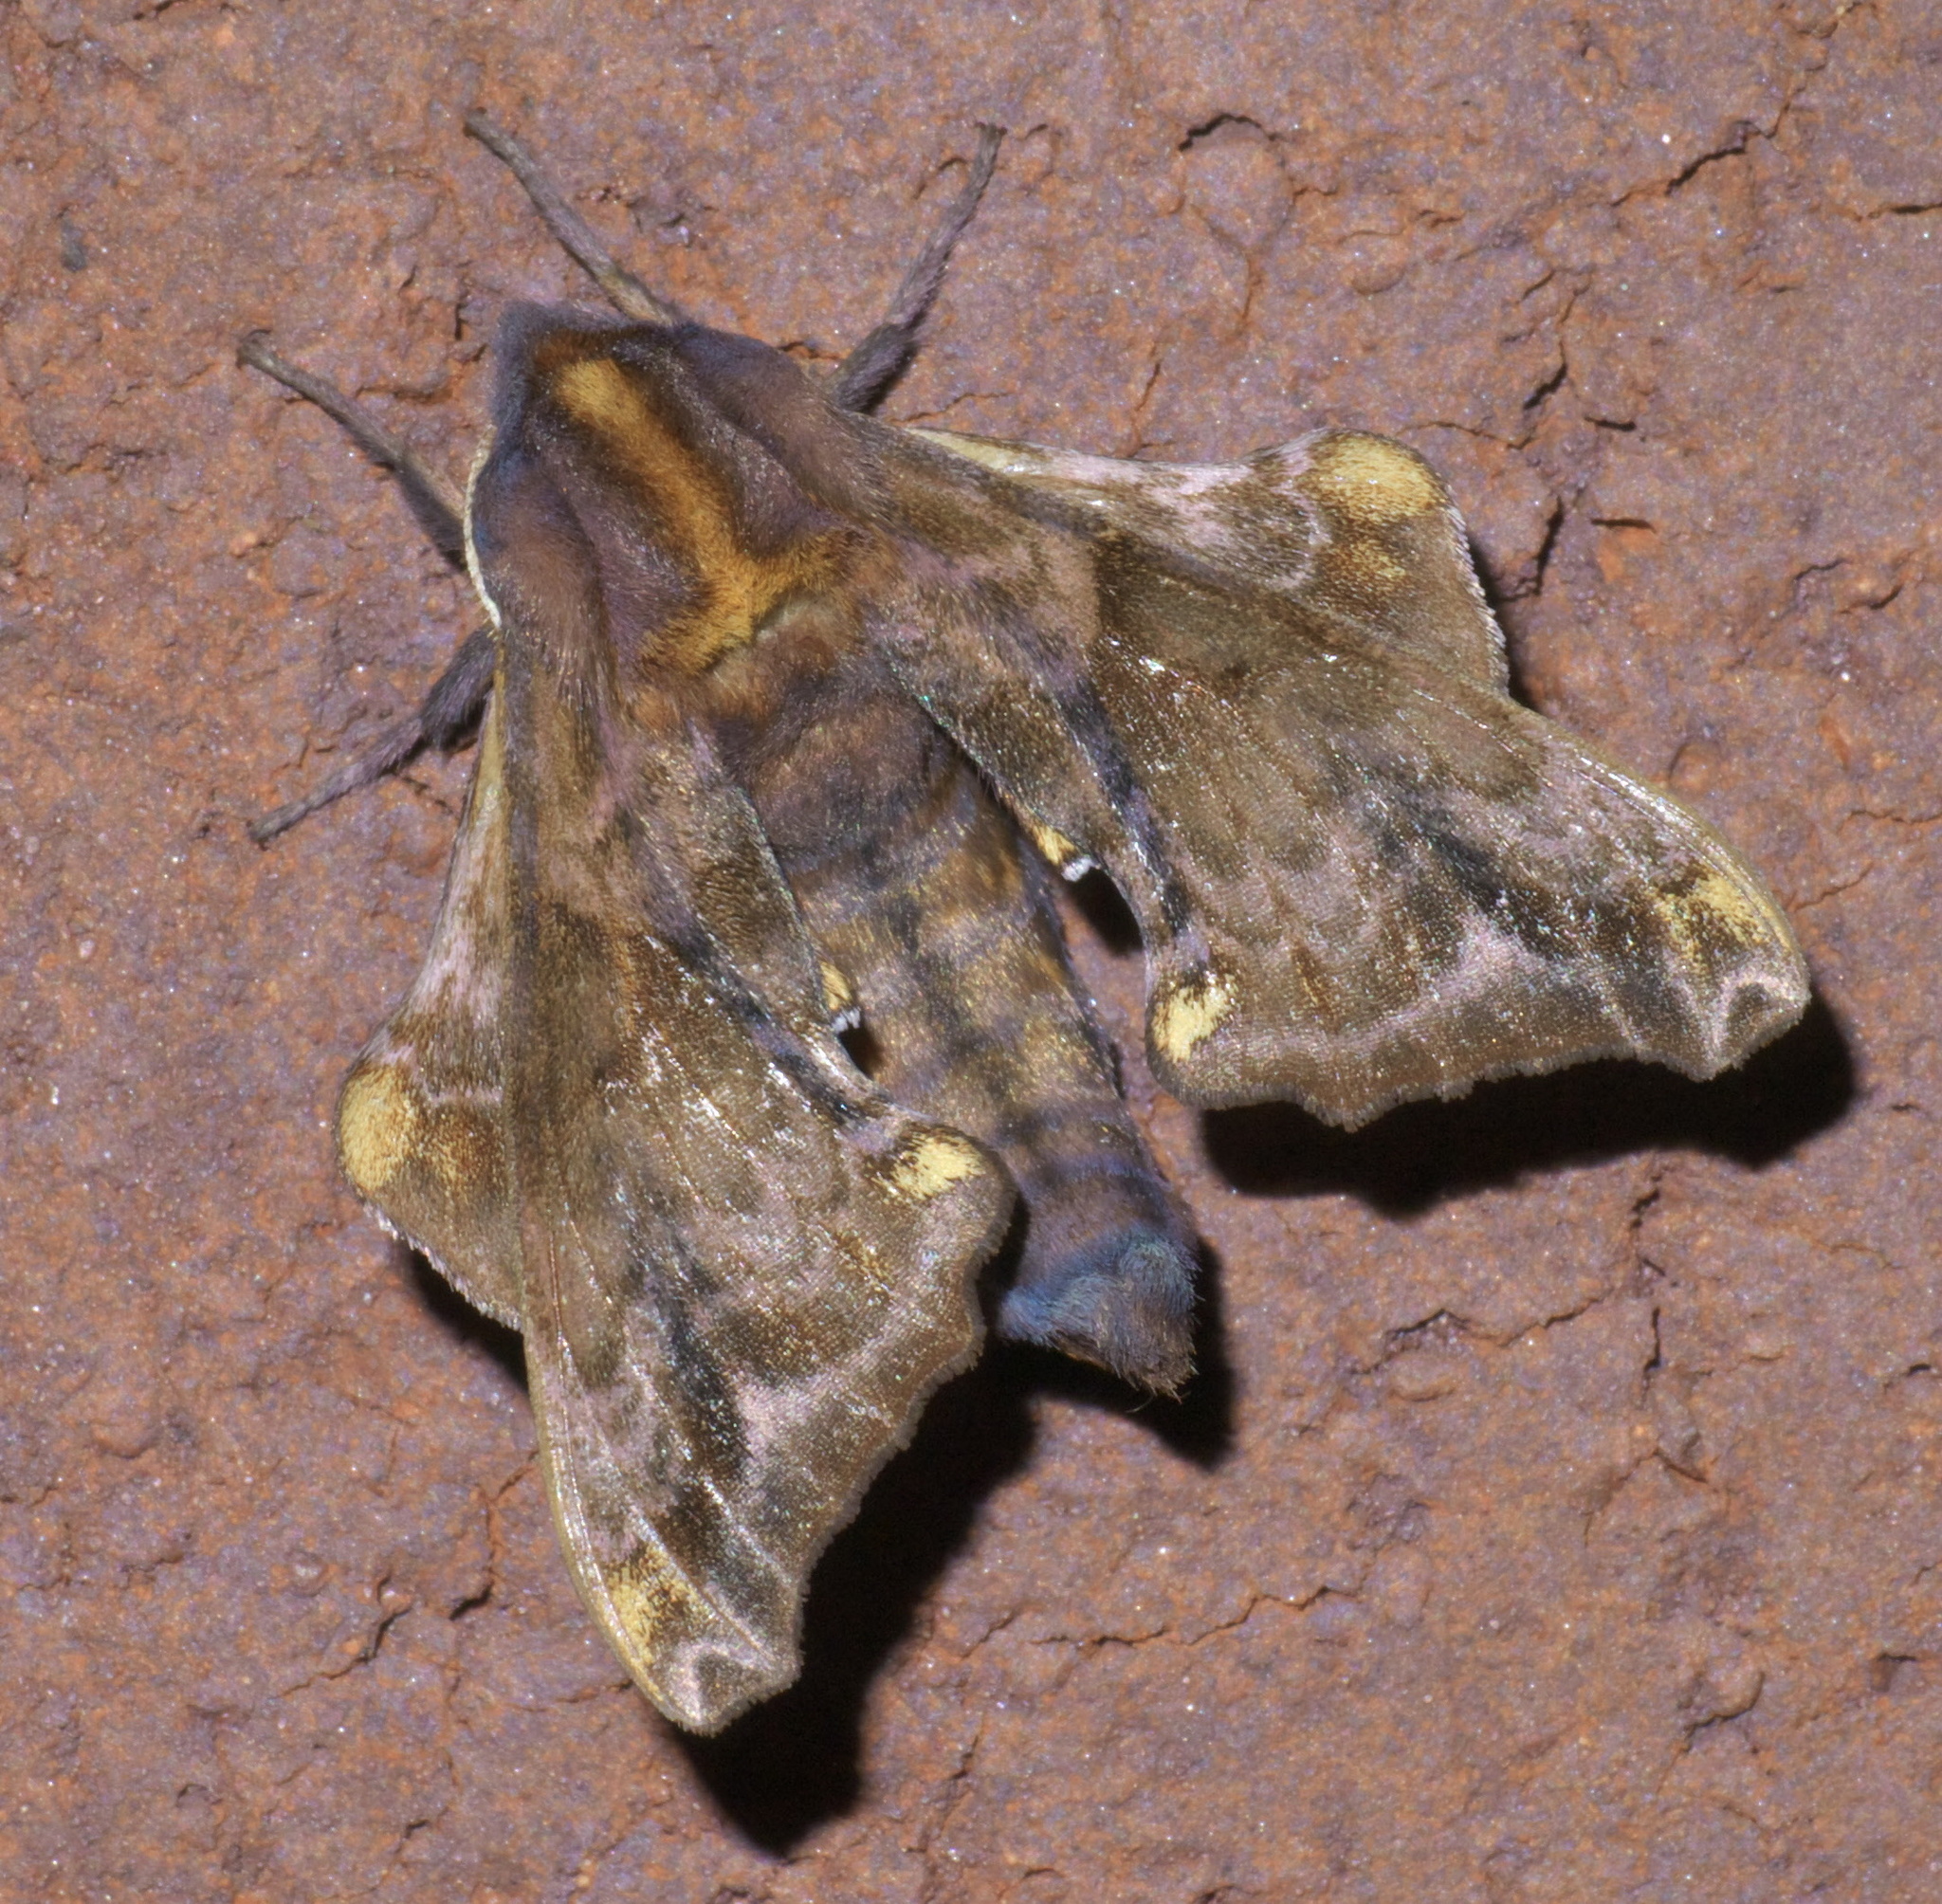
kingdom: Animalia
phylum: Arthropoda
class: Insecta
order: Lepidoptera
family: Sphingidae
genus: Paonias
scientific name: Paonias myops
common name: Small-eyed sphinx
